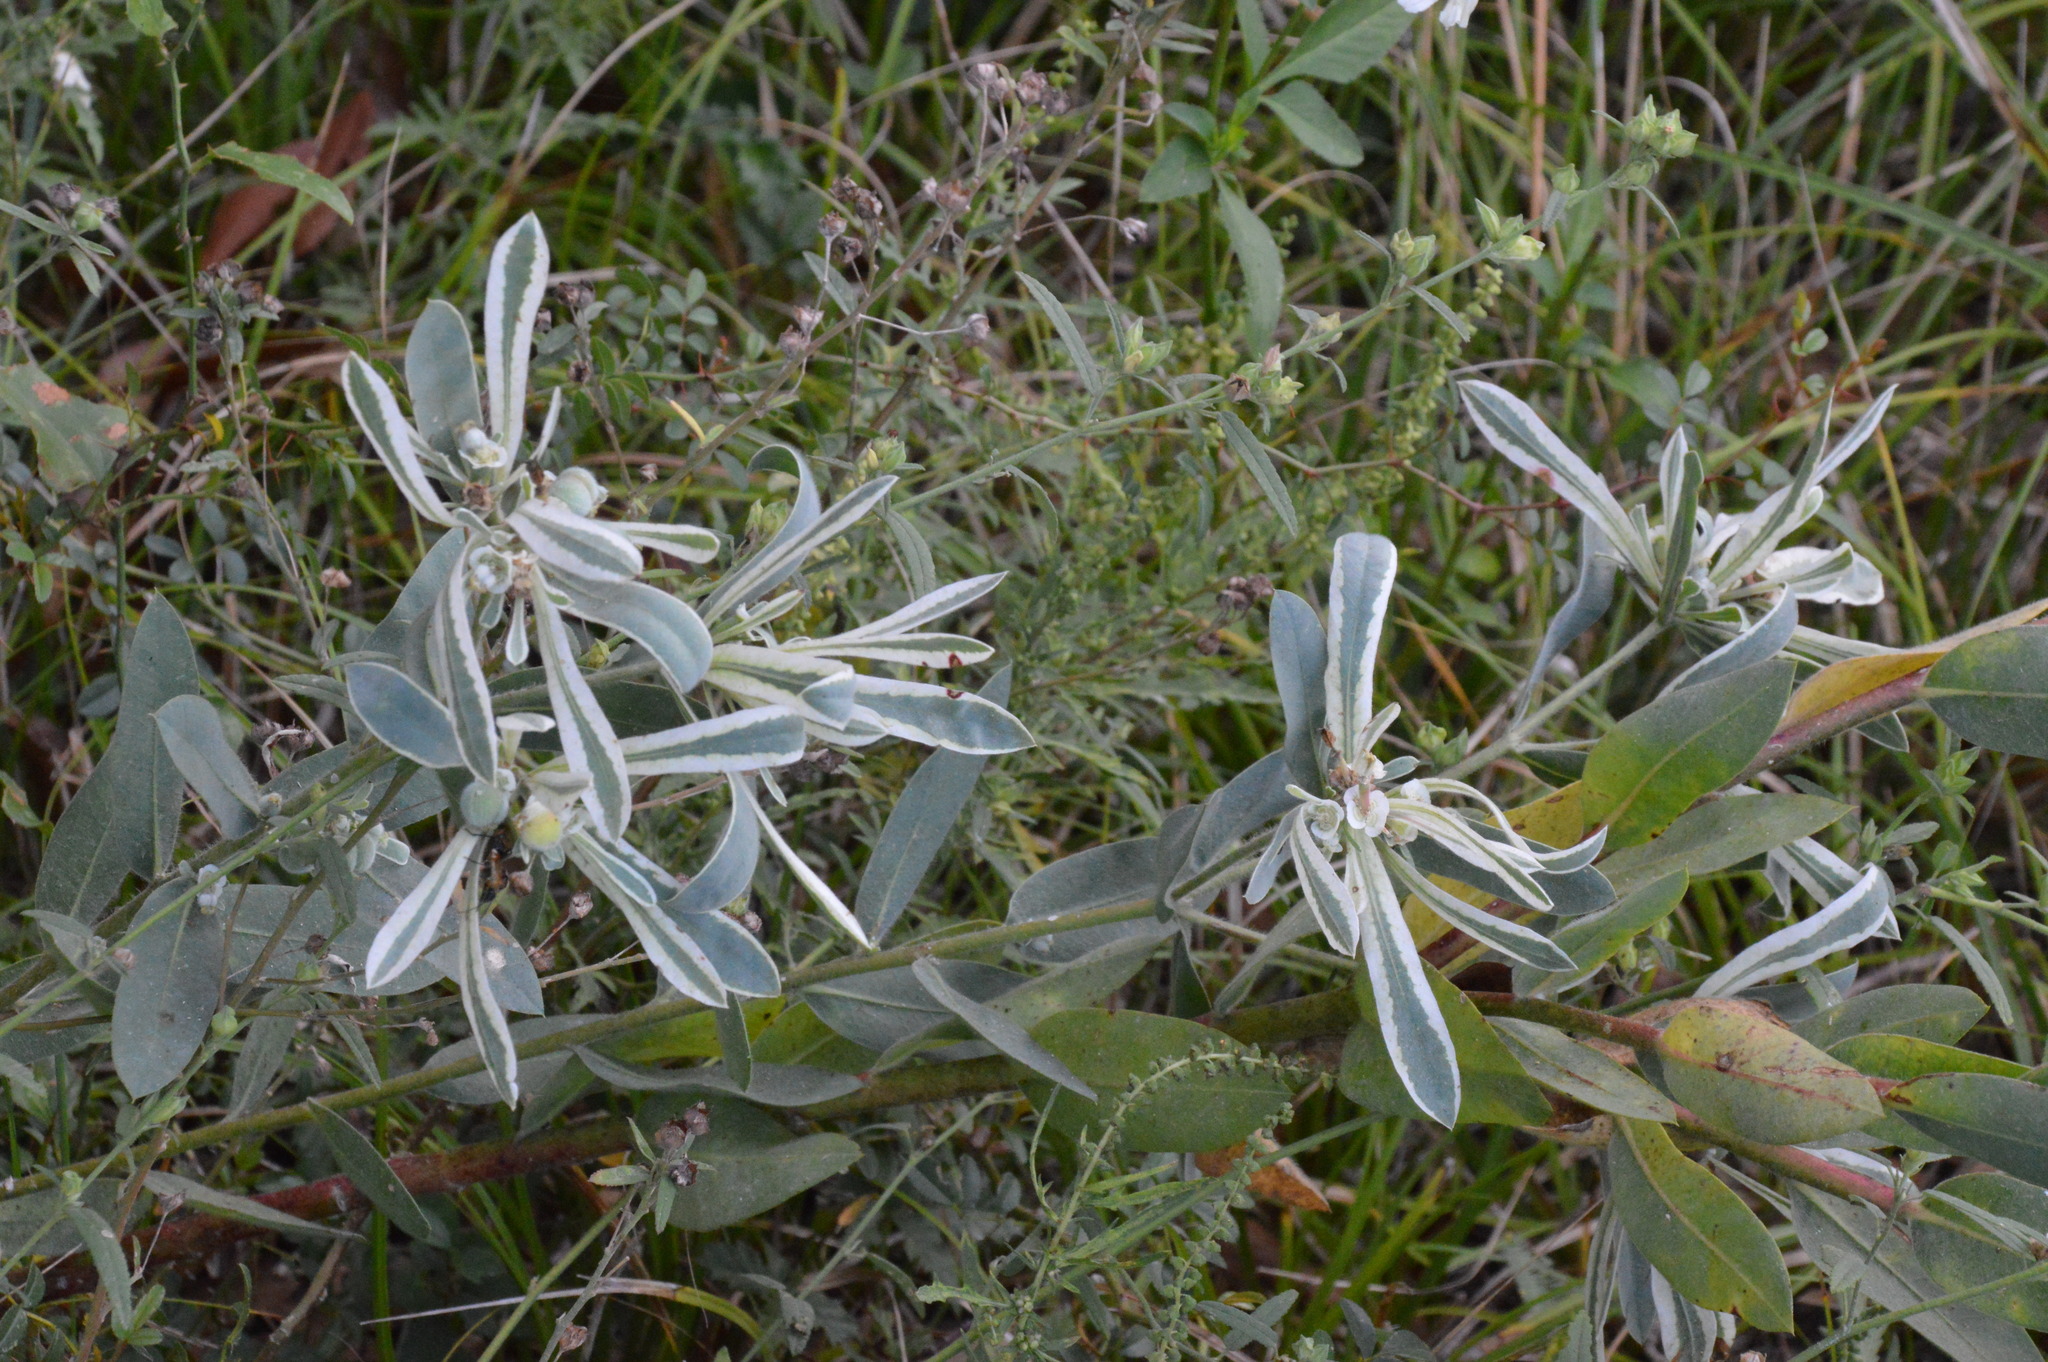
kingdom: Plantae
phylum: Tracheophyta
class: Magnoliopsida
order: Malpighiales
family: Euphorbiaceae
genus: Euphorbia
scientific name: Euphorbia bicolor
